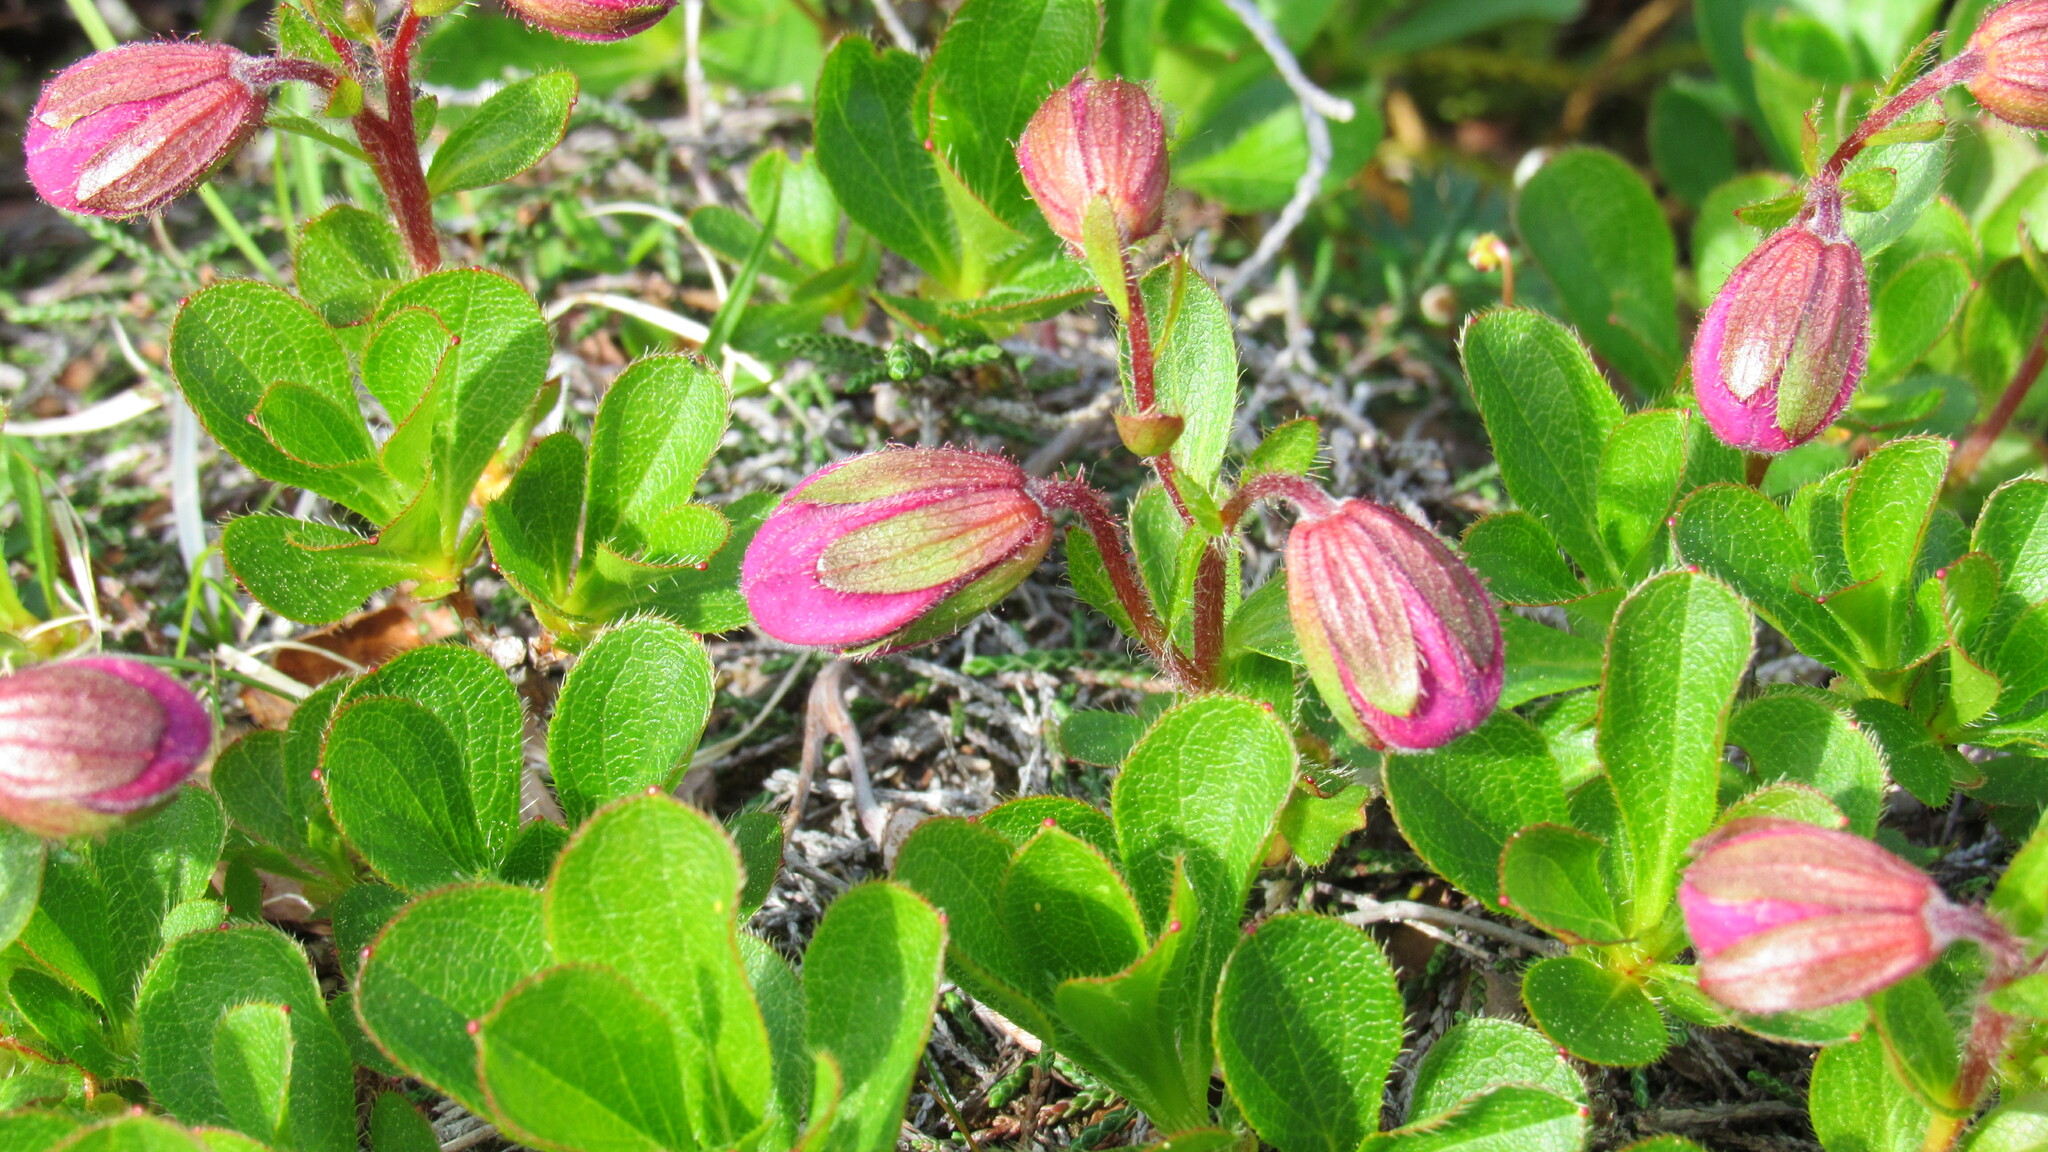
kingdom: Plantae
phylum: Tracheophyta
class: Magnoliopsida
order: Ericales
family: Ericaceae
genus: Rhododendron
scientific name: Rhododendron camtschaticum
